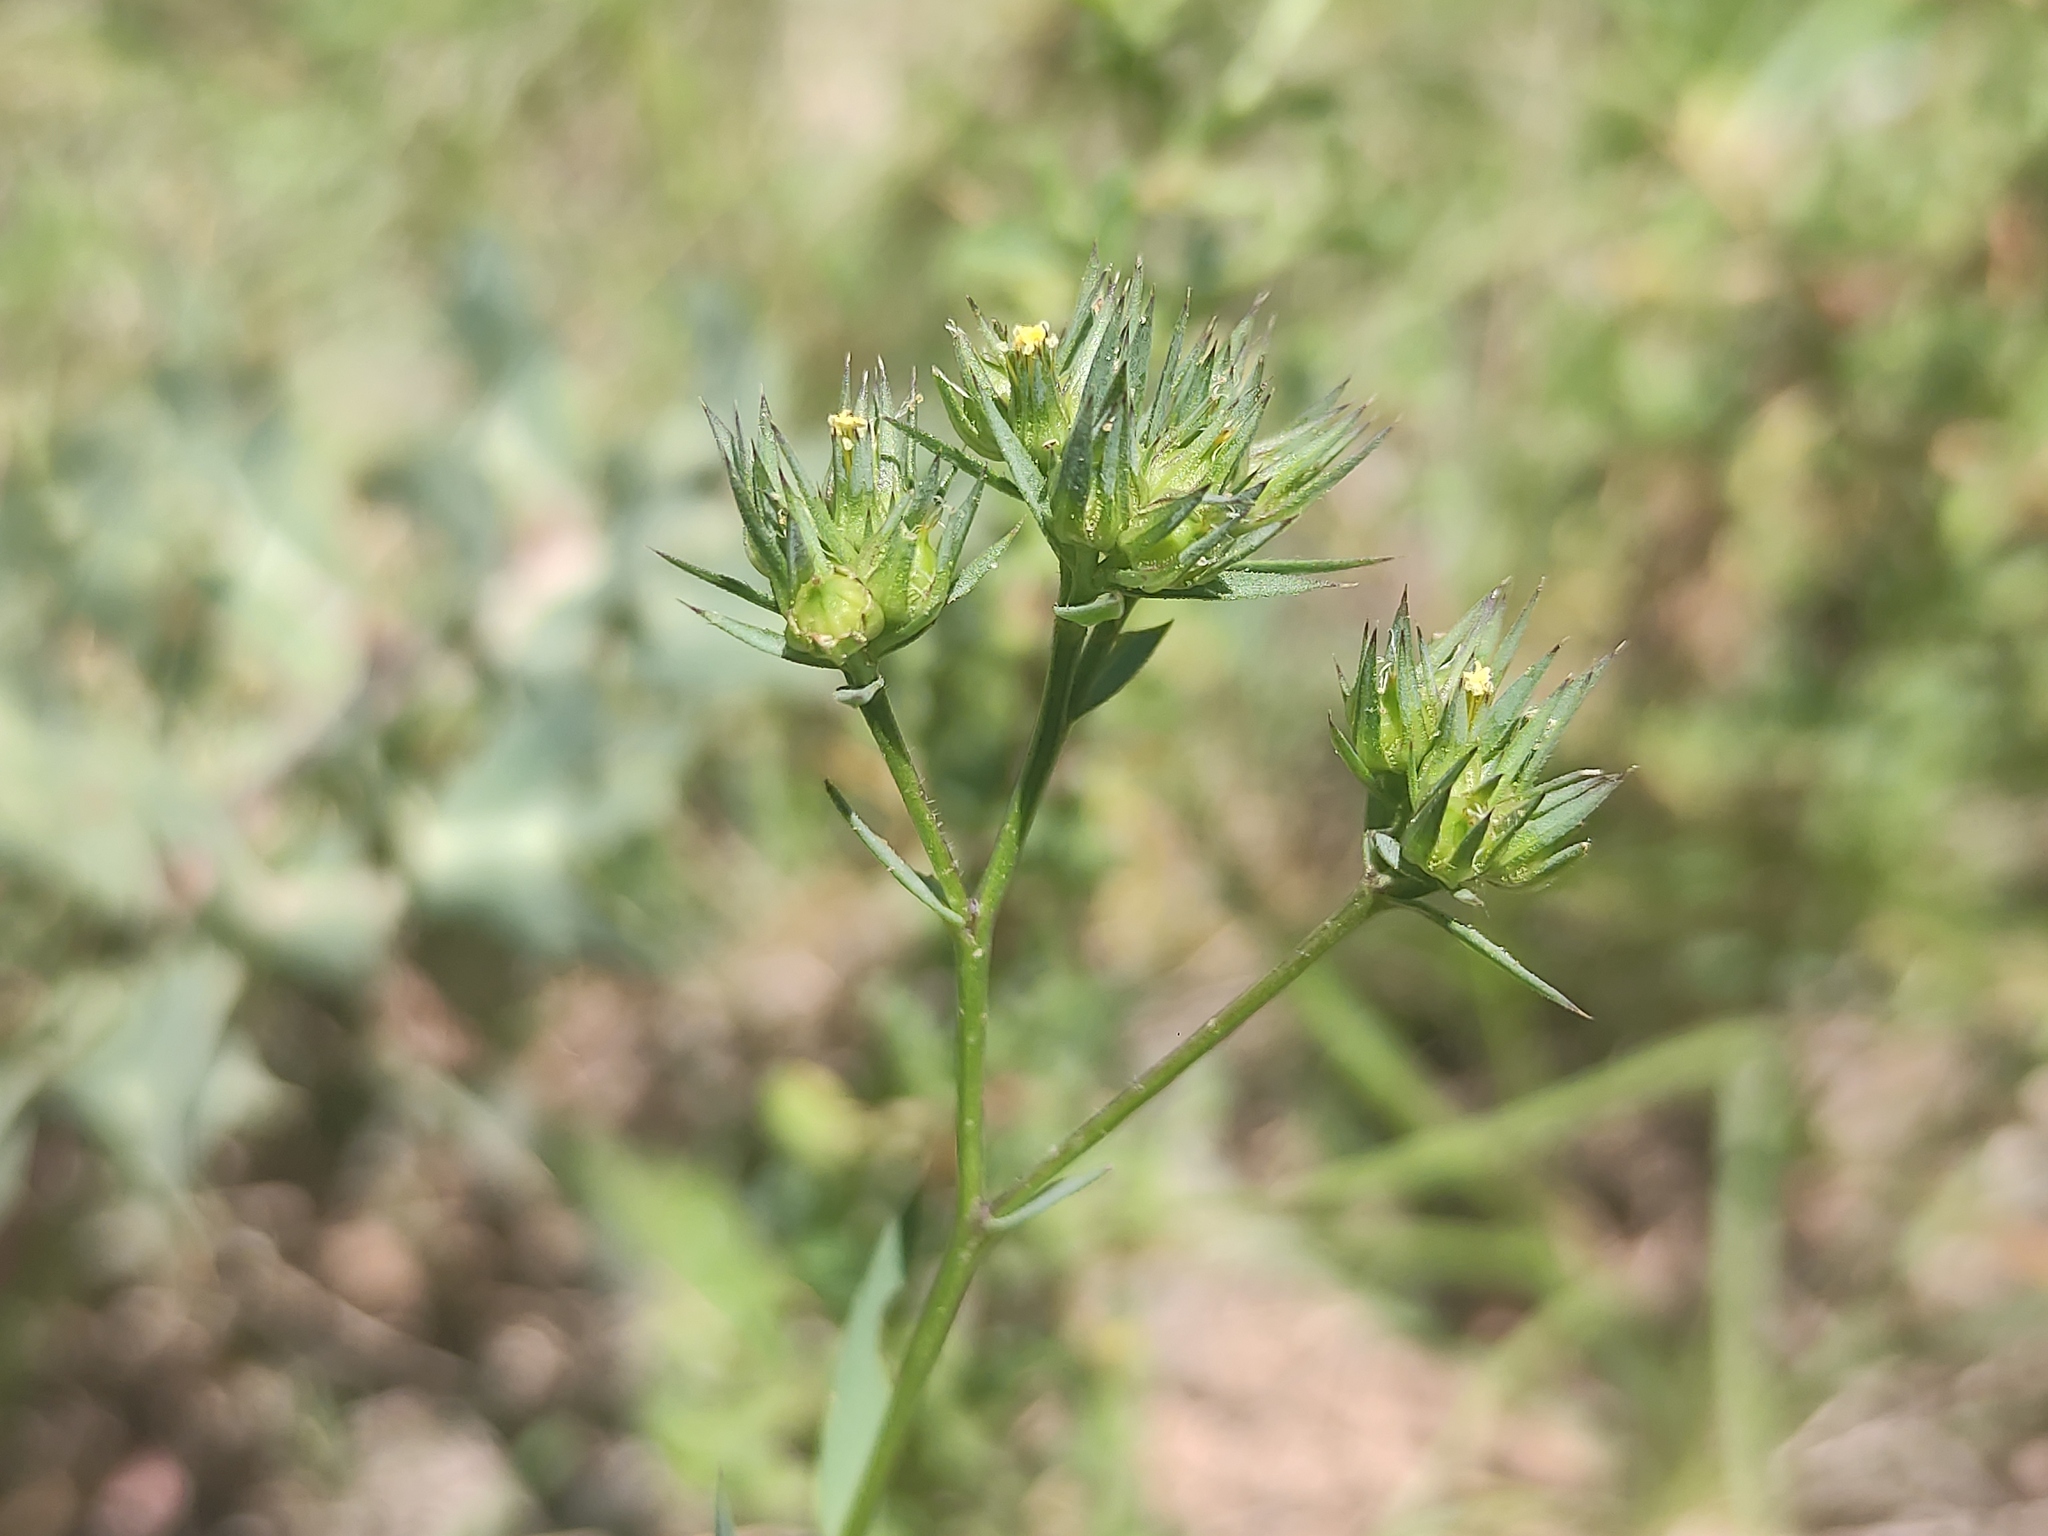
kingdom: Plantae
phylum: Tracheophyta
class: Magnoliopsida
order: Malpighiales
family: Linaceae
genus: Linum
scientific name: Linum strictum
